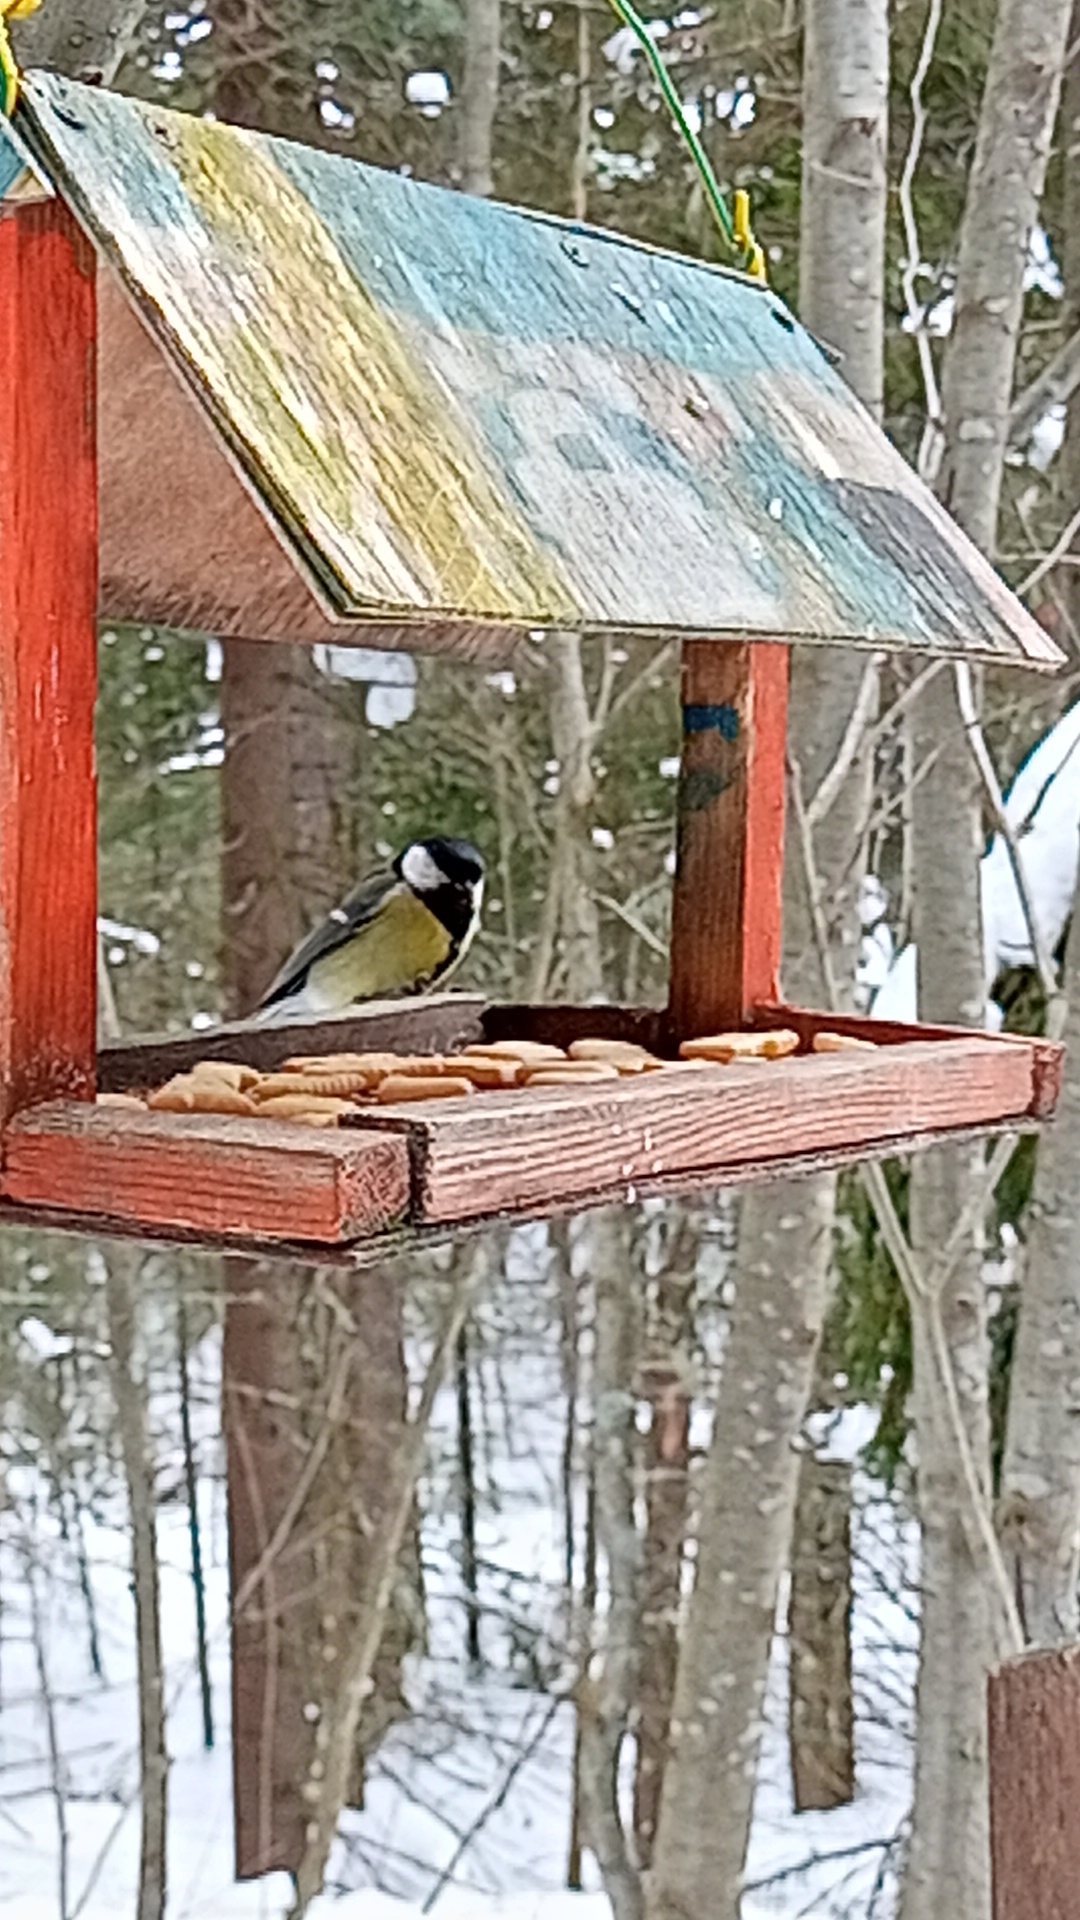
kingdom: Animalia
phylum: Chordata
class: Aves
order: Passeriformes
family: Paridae
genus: Parus
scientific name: Parus major
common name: Great tit
